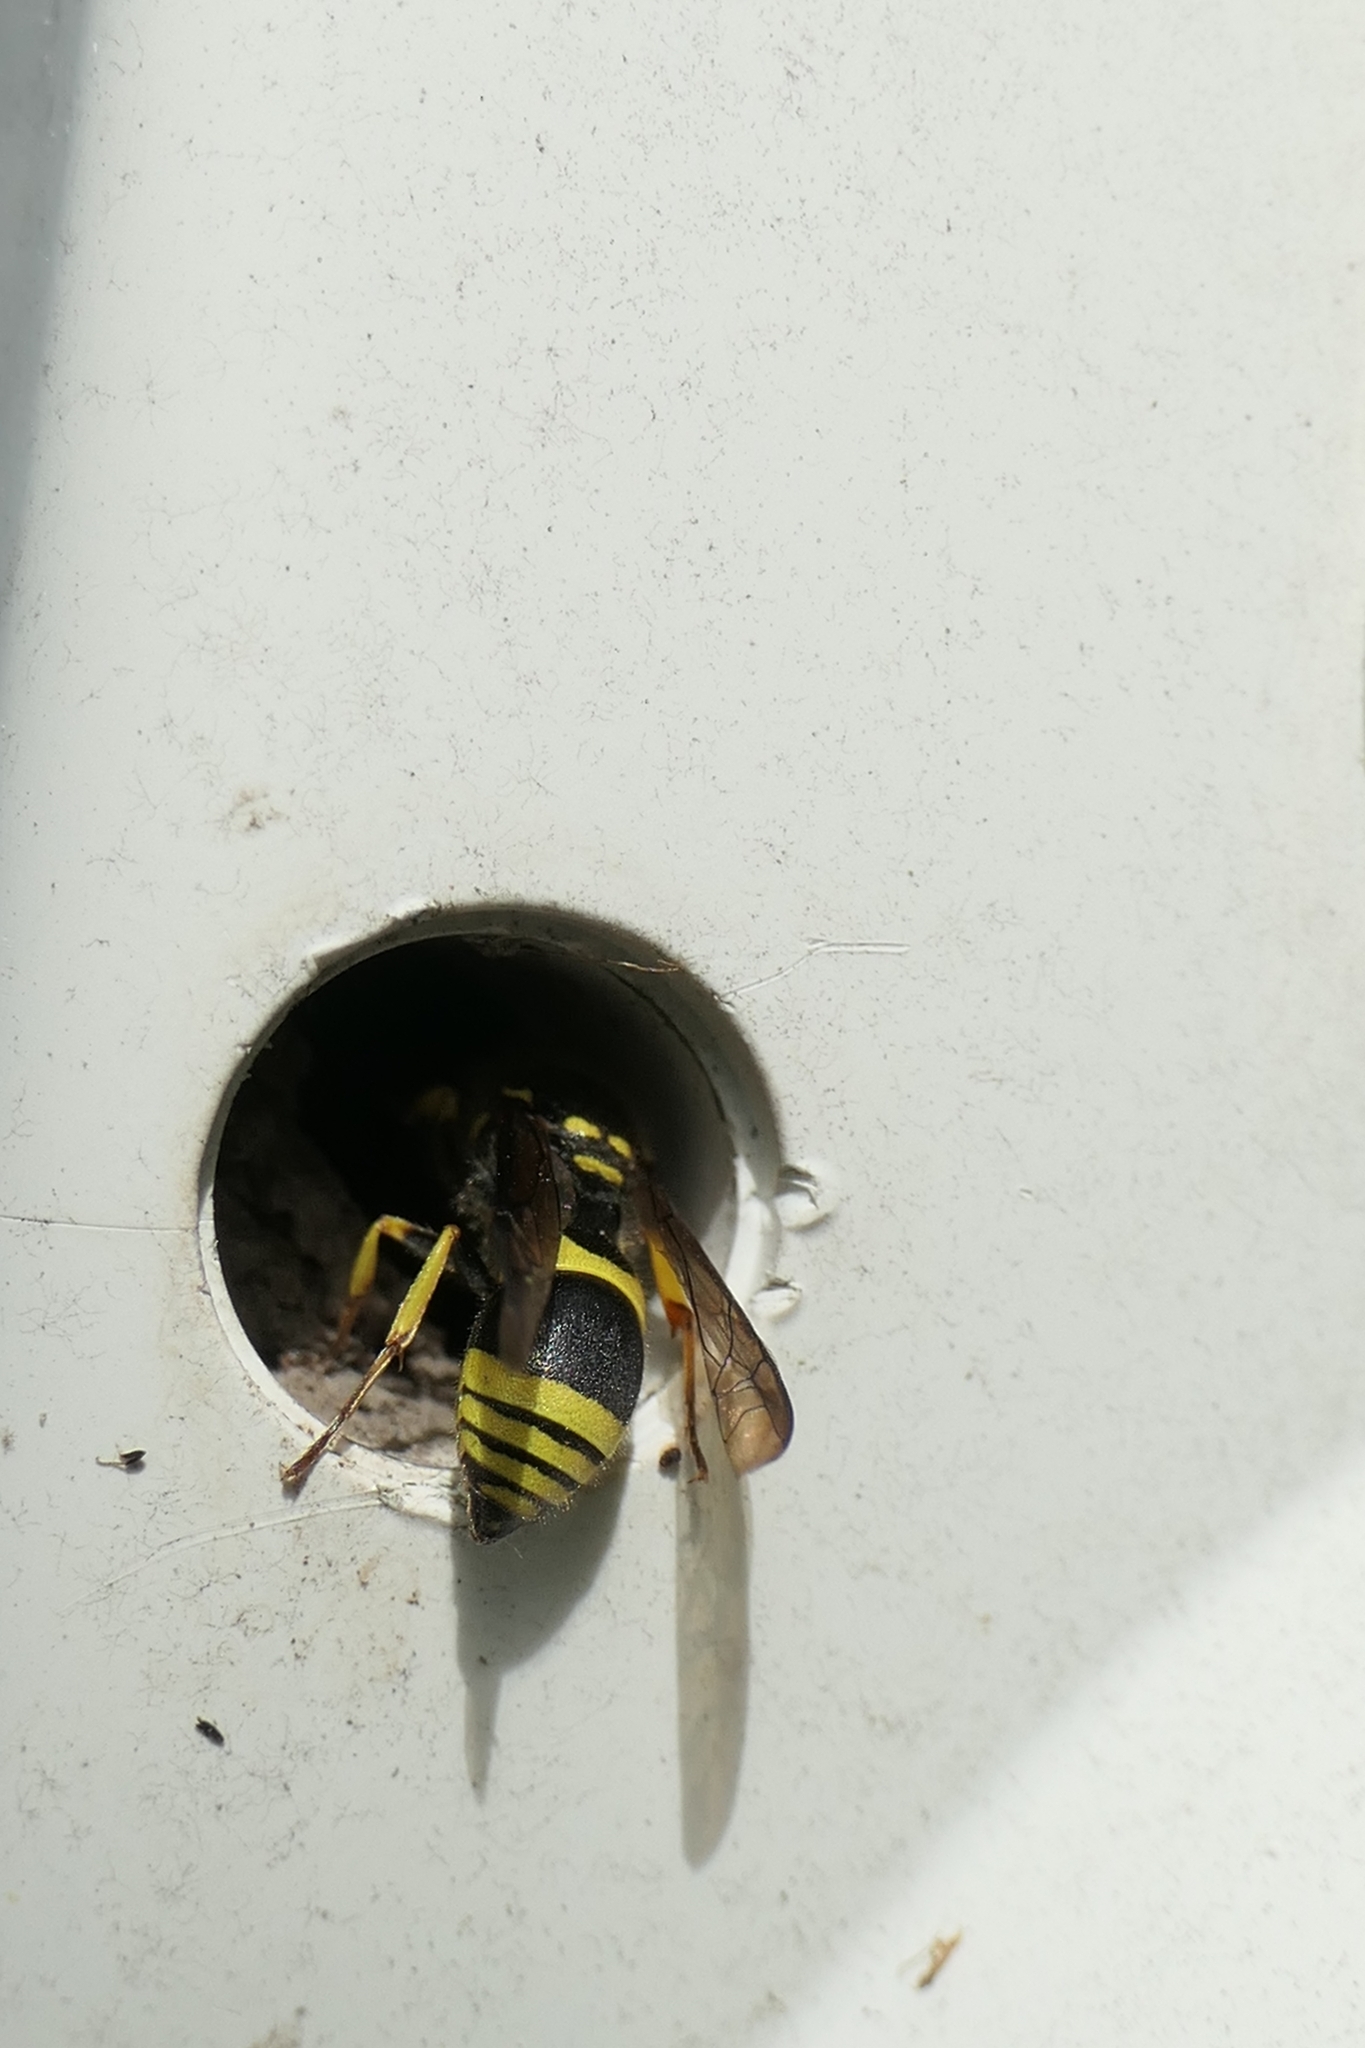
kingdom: Animalia
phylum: Arthropoda
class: Insecta
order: Hymenoptera
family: Vespidae
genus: Ancistrocerus
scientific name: Ancistrocerus gazella
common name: European tube wasp
